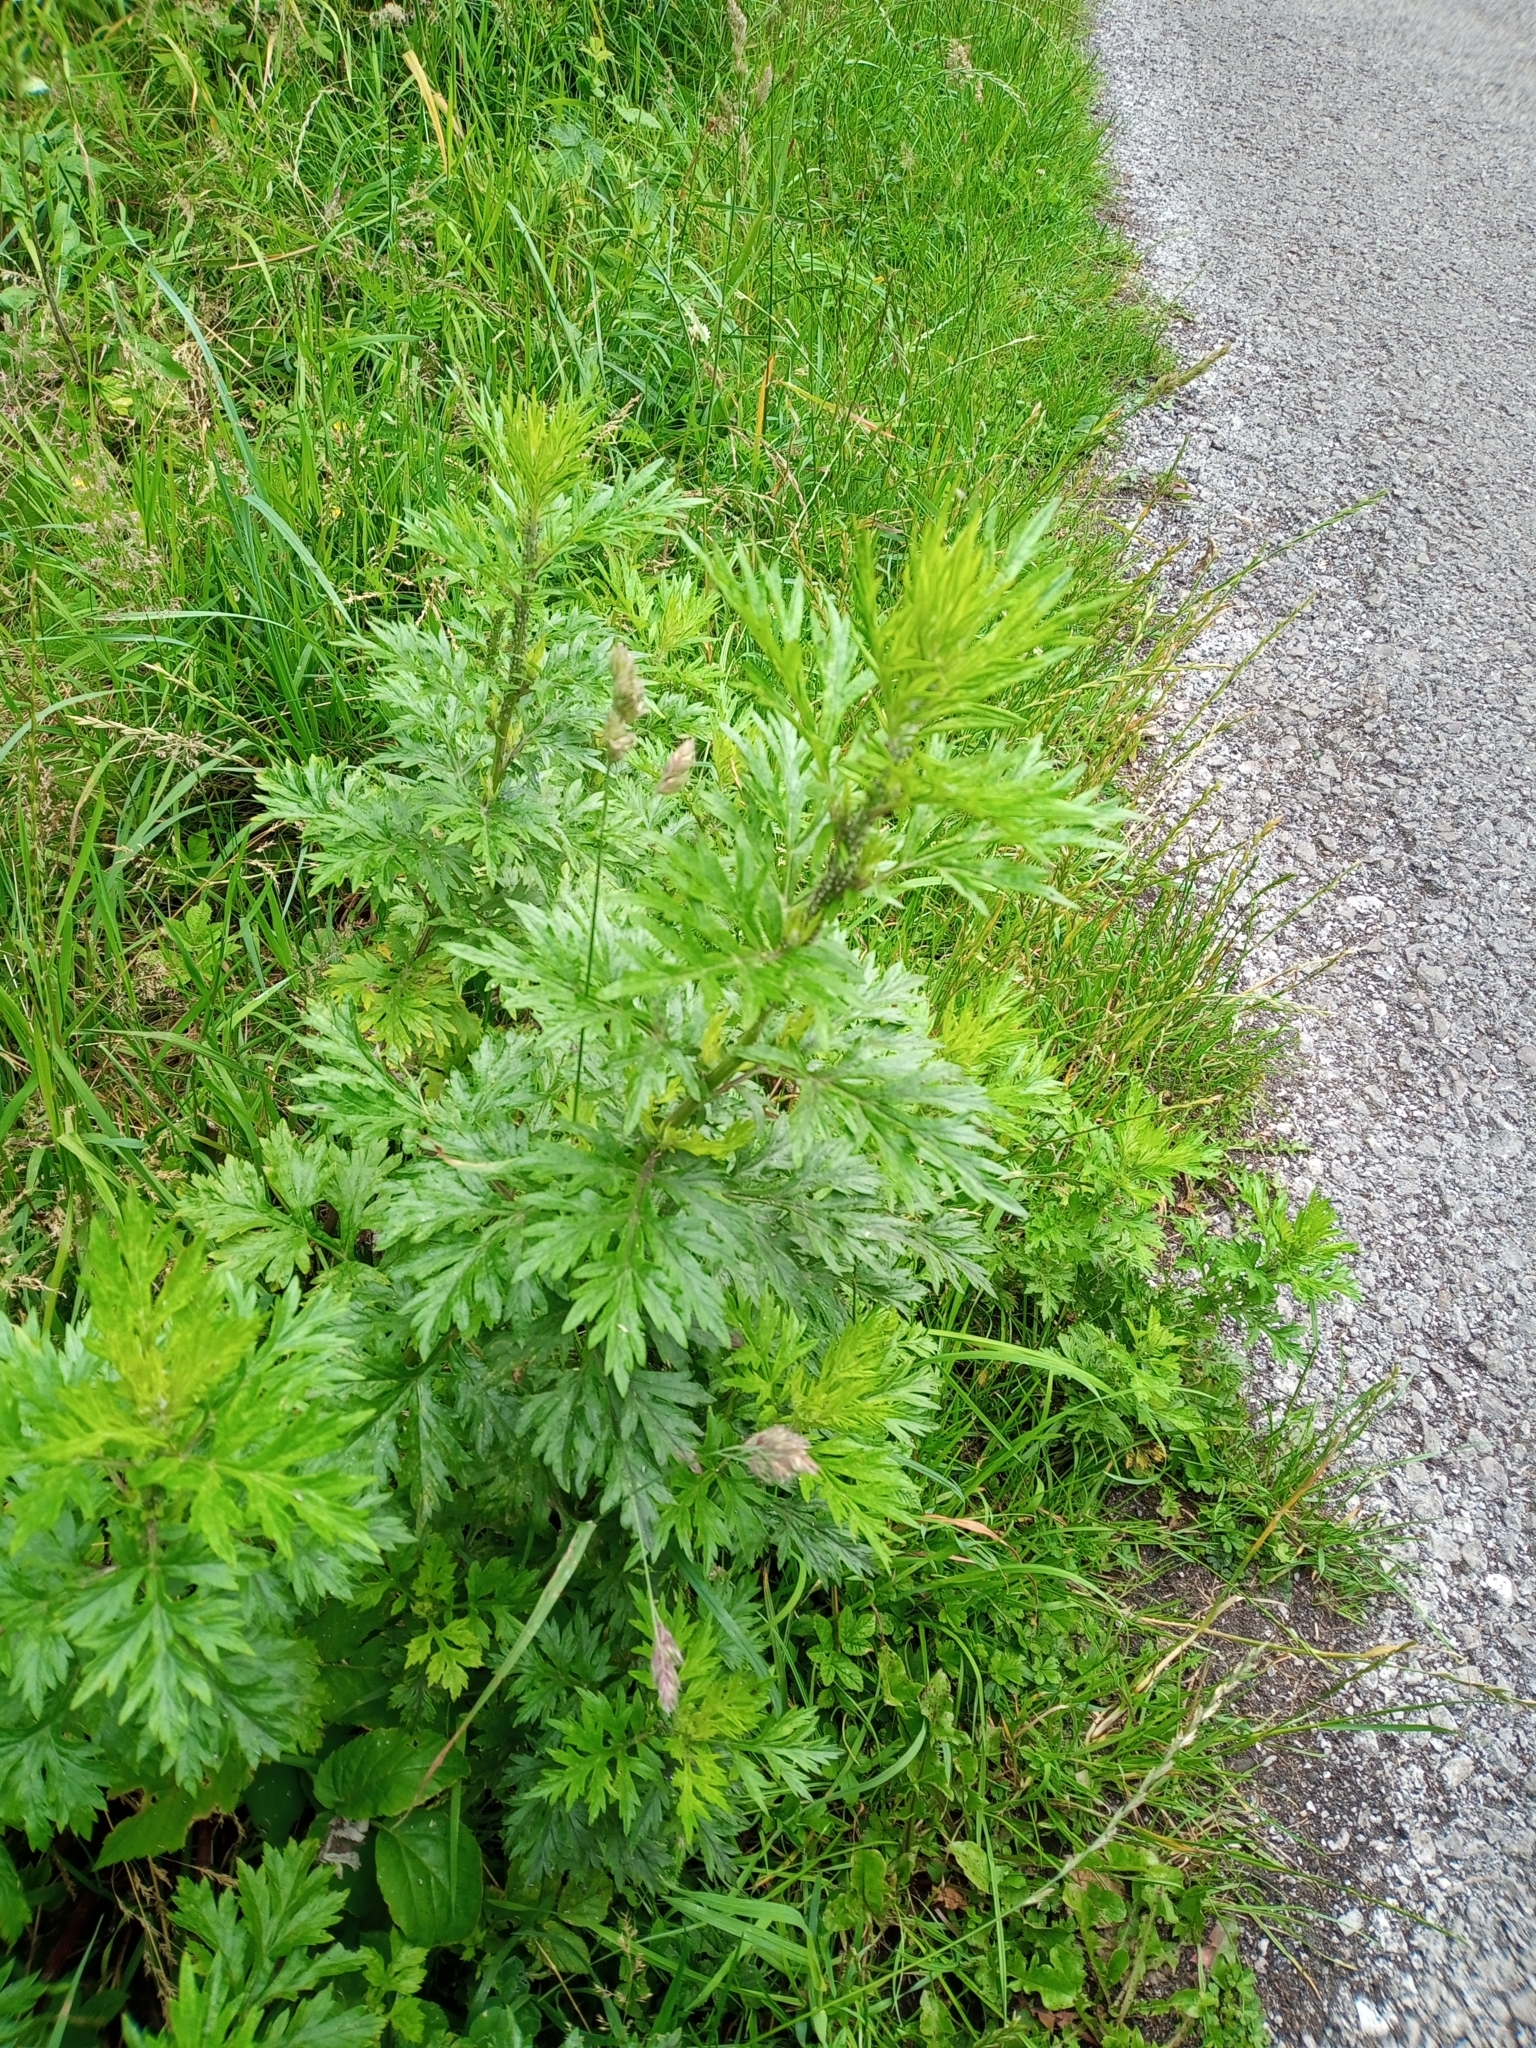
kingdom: Plantae
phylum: Tracheophyta
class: Magnoliopsida
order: Asterales
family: Asteraceae
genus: Artemisia
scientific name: Artemisia vulgaris
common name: Mugwort
